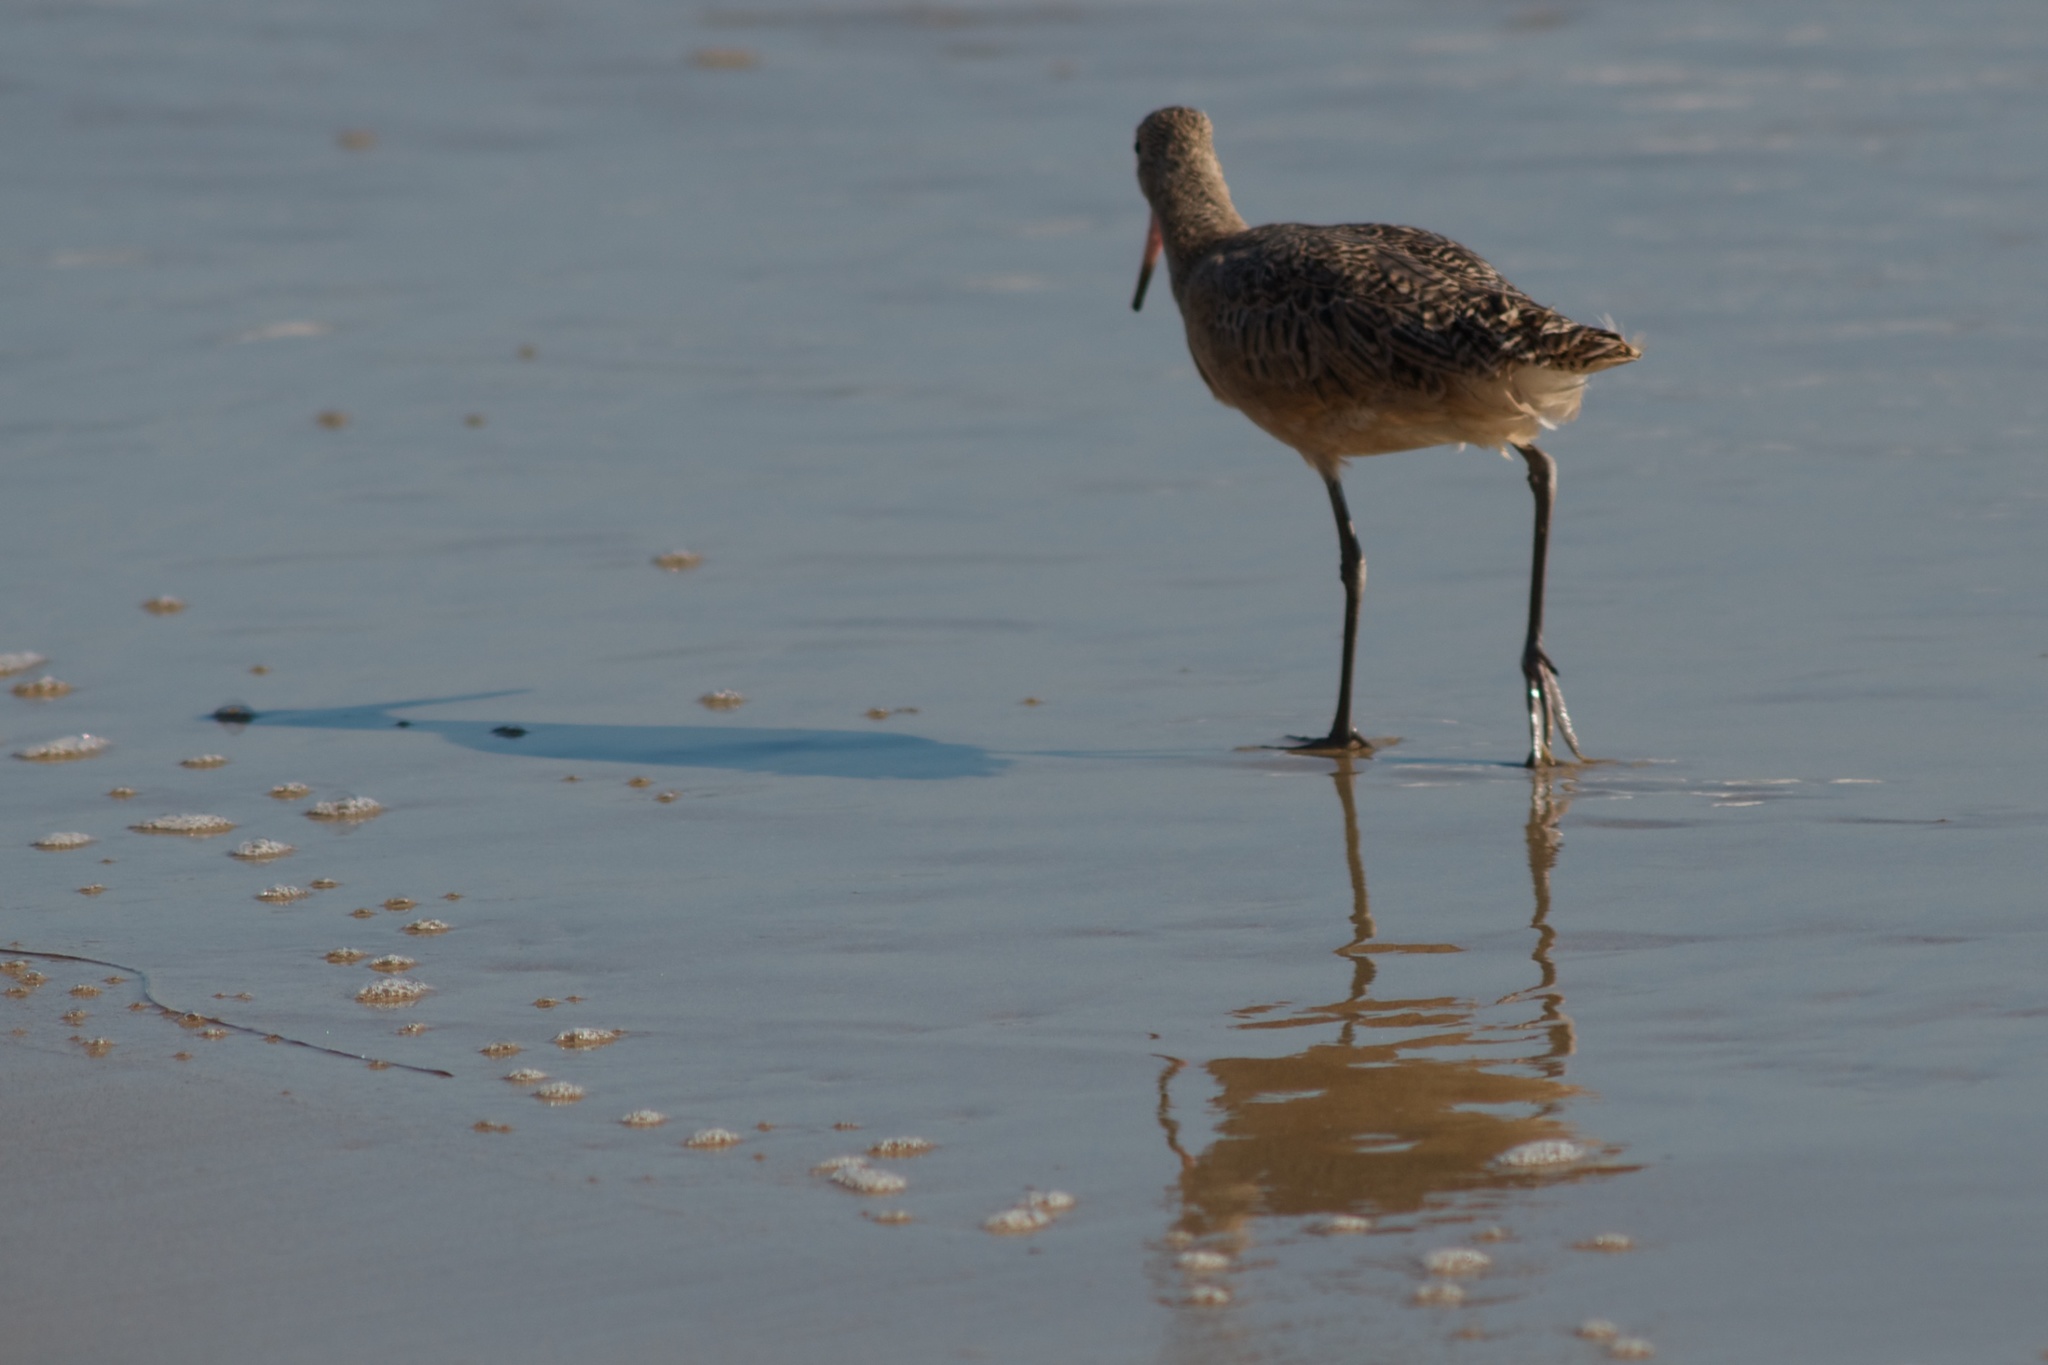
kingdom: Animalia
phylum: Chordata
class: Aves
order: Charadriiformes
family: Scolopacidae
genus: Limosa
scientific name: Limosa fedoa
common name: Marbled godwit
